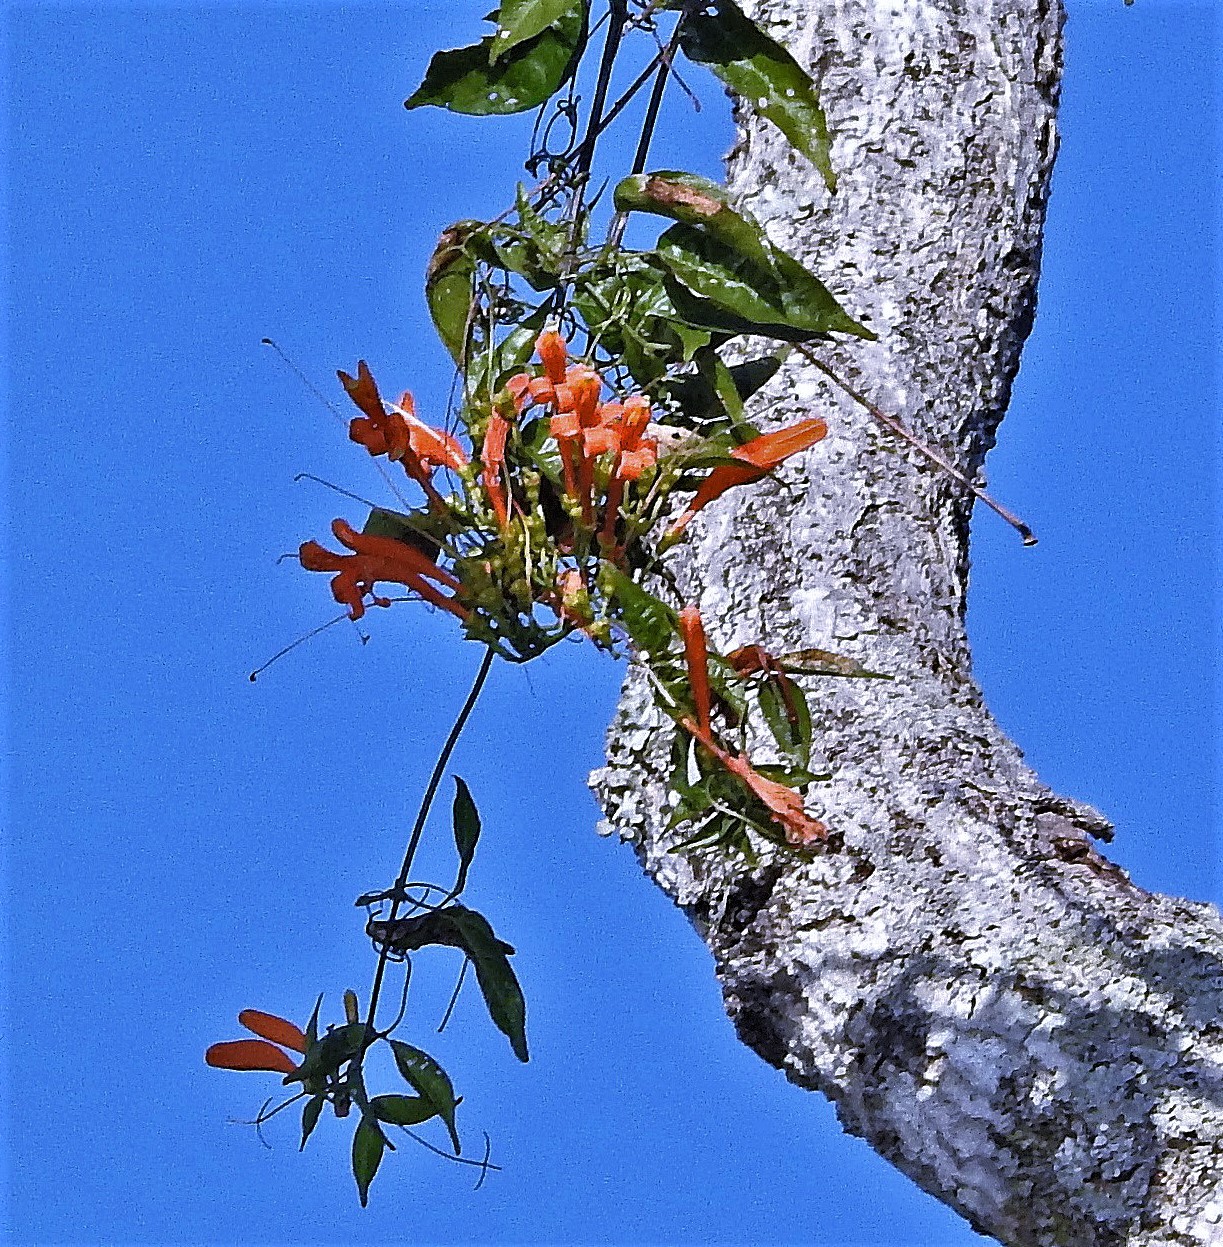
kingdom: Plantae
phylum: Tracheophyta
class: Magnoliopsida
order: Lamiales
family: Bignoniaceae
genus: Pyrostegia
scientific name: Pyrostegia venusta
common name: Flamevine
